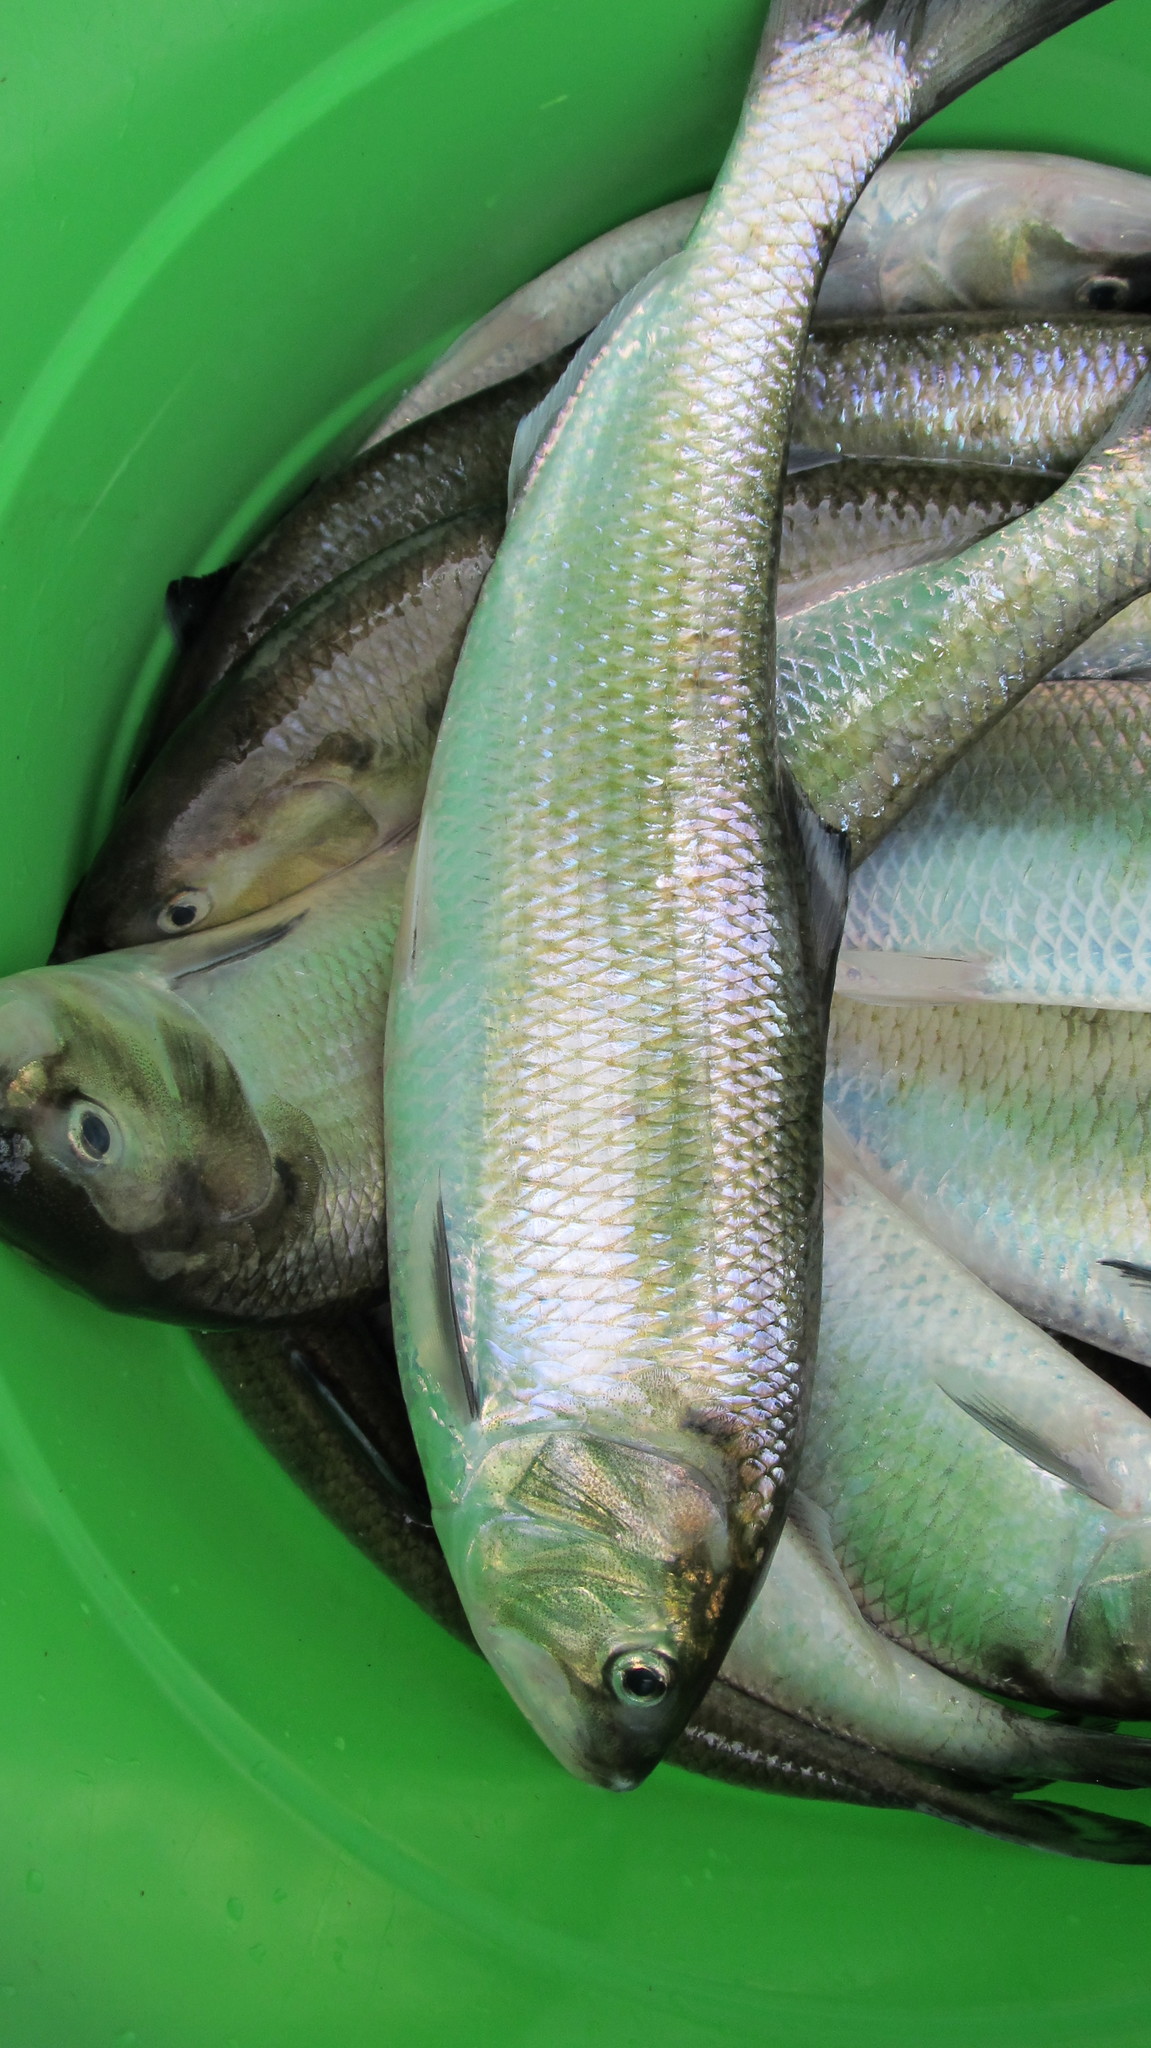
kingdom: Animalia
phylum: Chordata
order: Clupeiformes
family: Clupeidae
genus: Alosa
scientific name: Alosa sapidissima
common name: American shad
